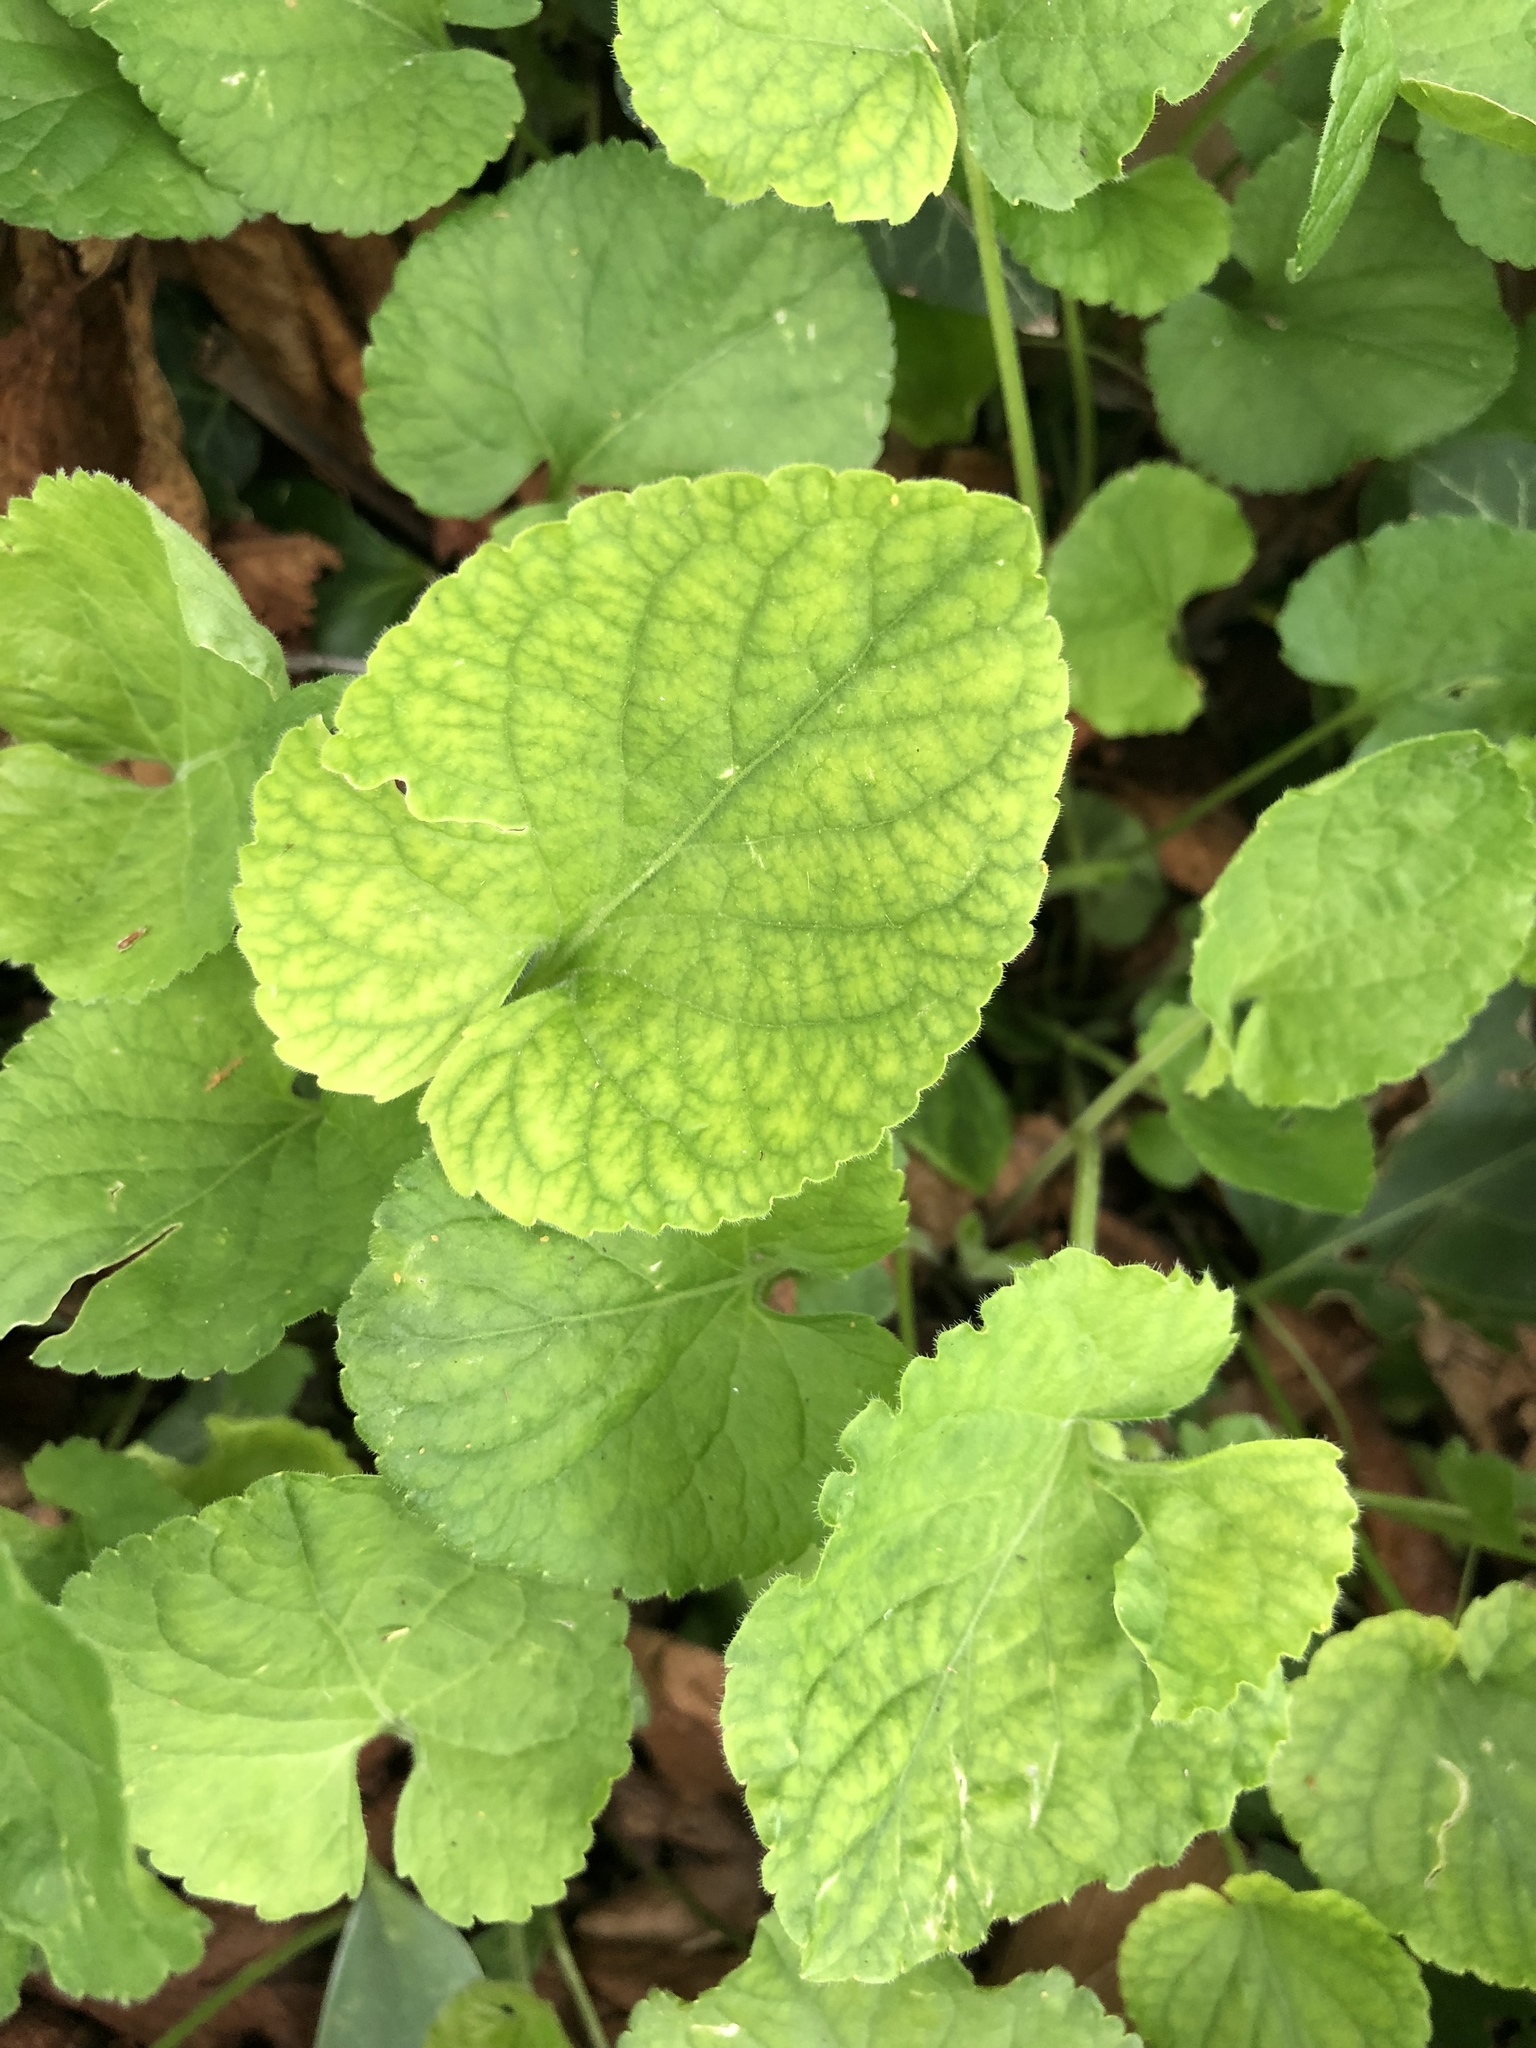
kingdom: Plantae
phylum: Tracheophyta
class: Magnoliopsida
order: Malpighiales
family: Violaceae
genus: Viola
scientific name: Viola sororia
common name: Dooryard violet
